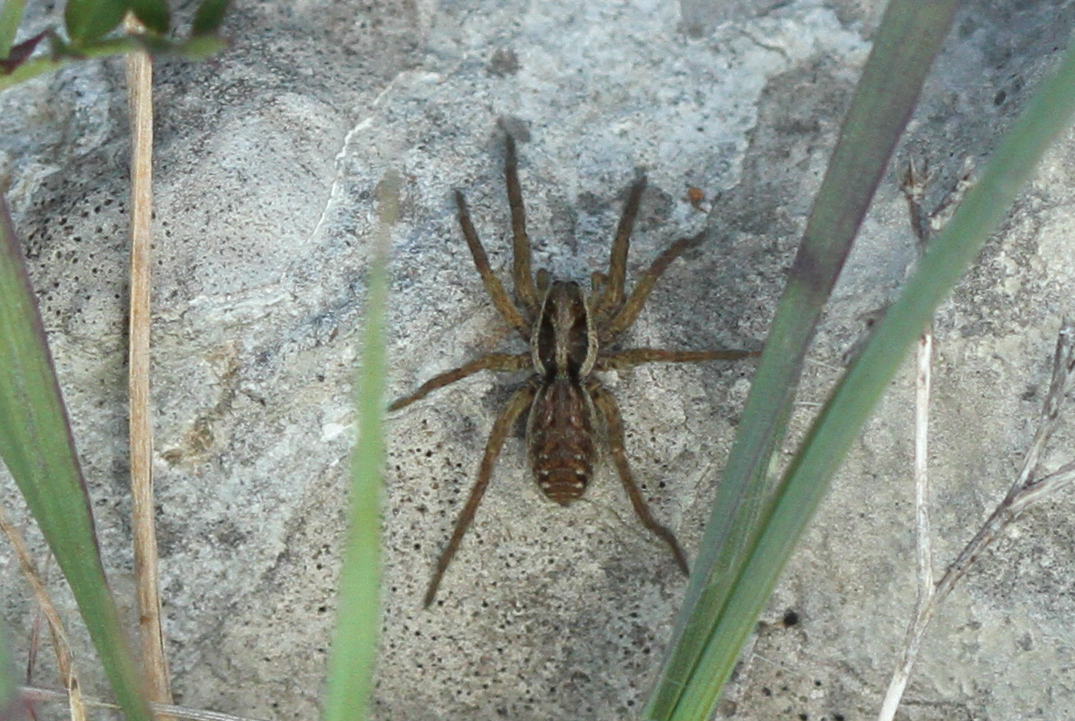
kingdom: Animalia
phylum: Arthropoda
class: Arachnida
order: Araneae
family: Lycosidae
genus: Hogna
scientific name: Hogna radiata
